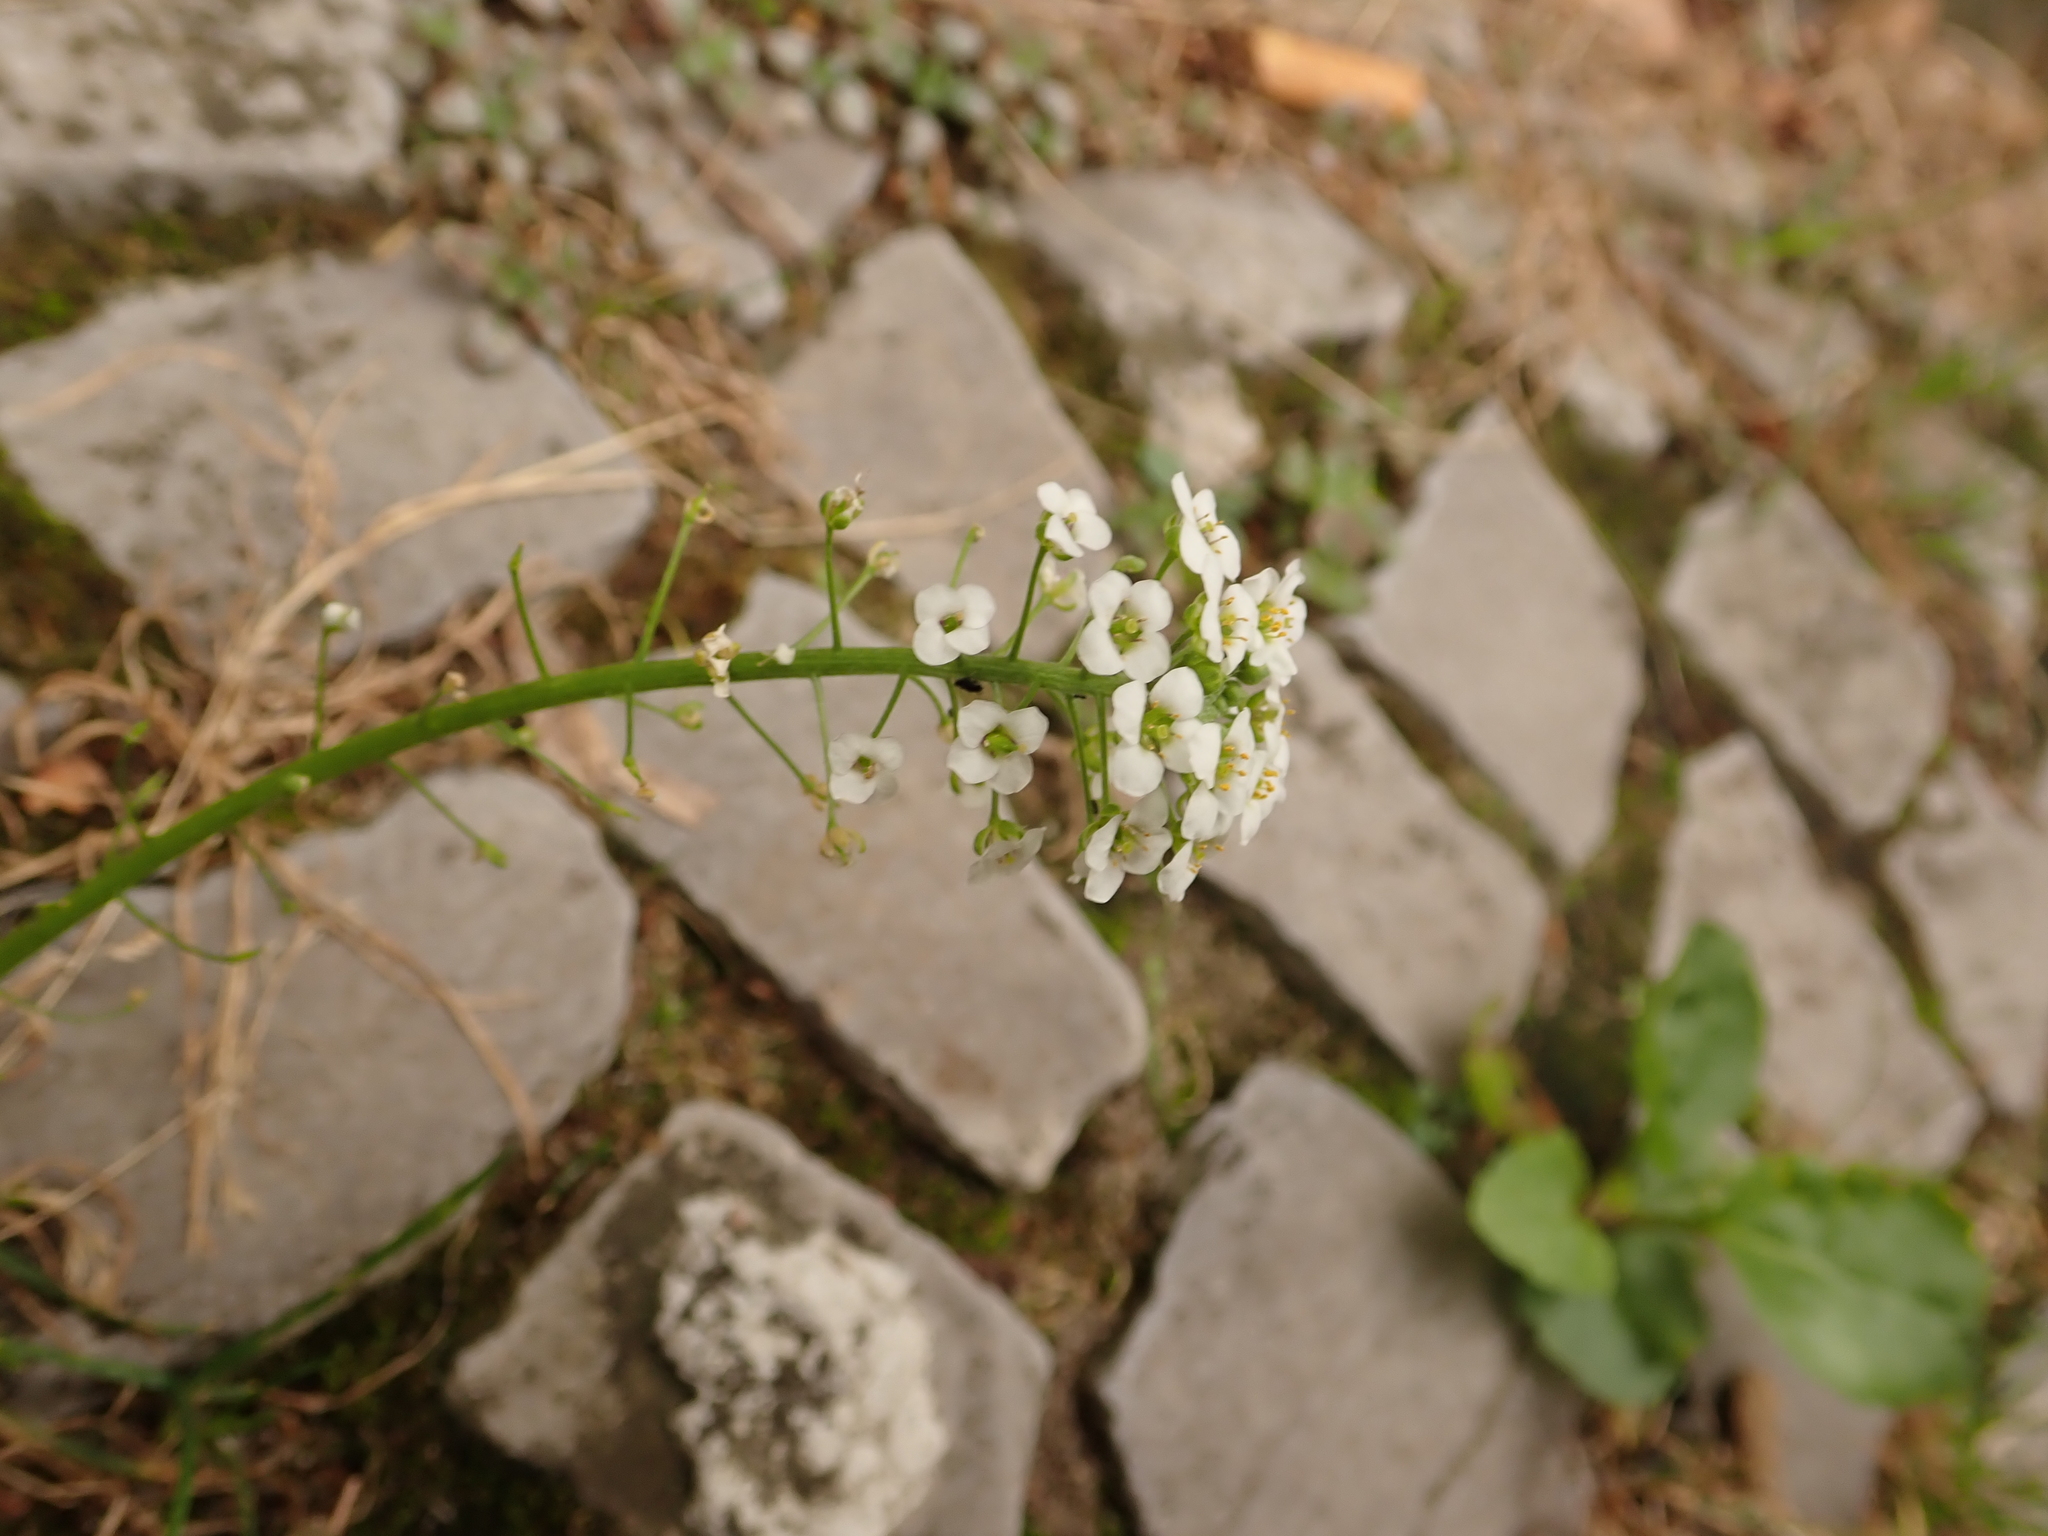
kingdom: Plantae
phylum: Tracheophyta
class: Magnoliopsida
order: Brassicales
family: Brassicaceae
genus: Lobularia
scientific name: Lobularia maritima
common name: Sweet alison
